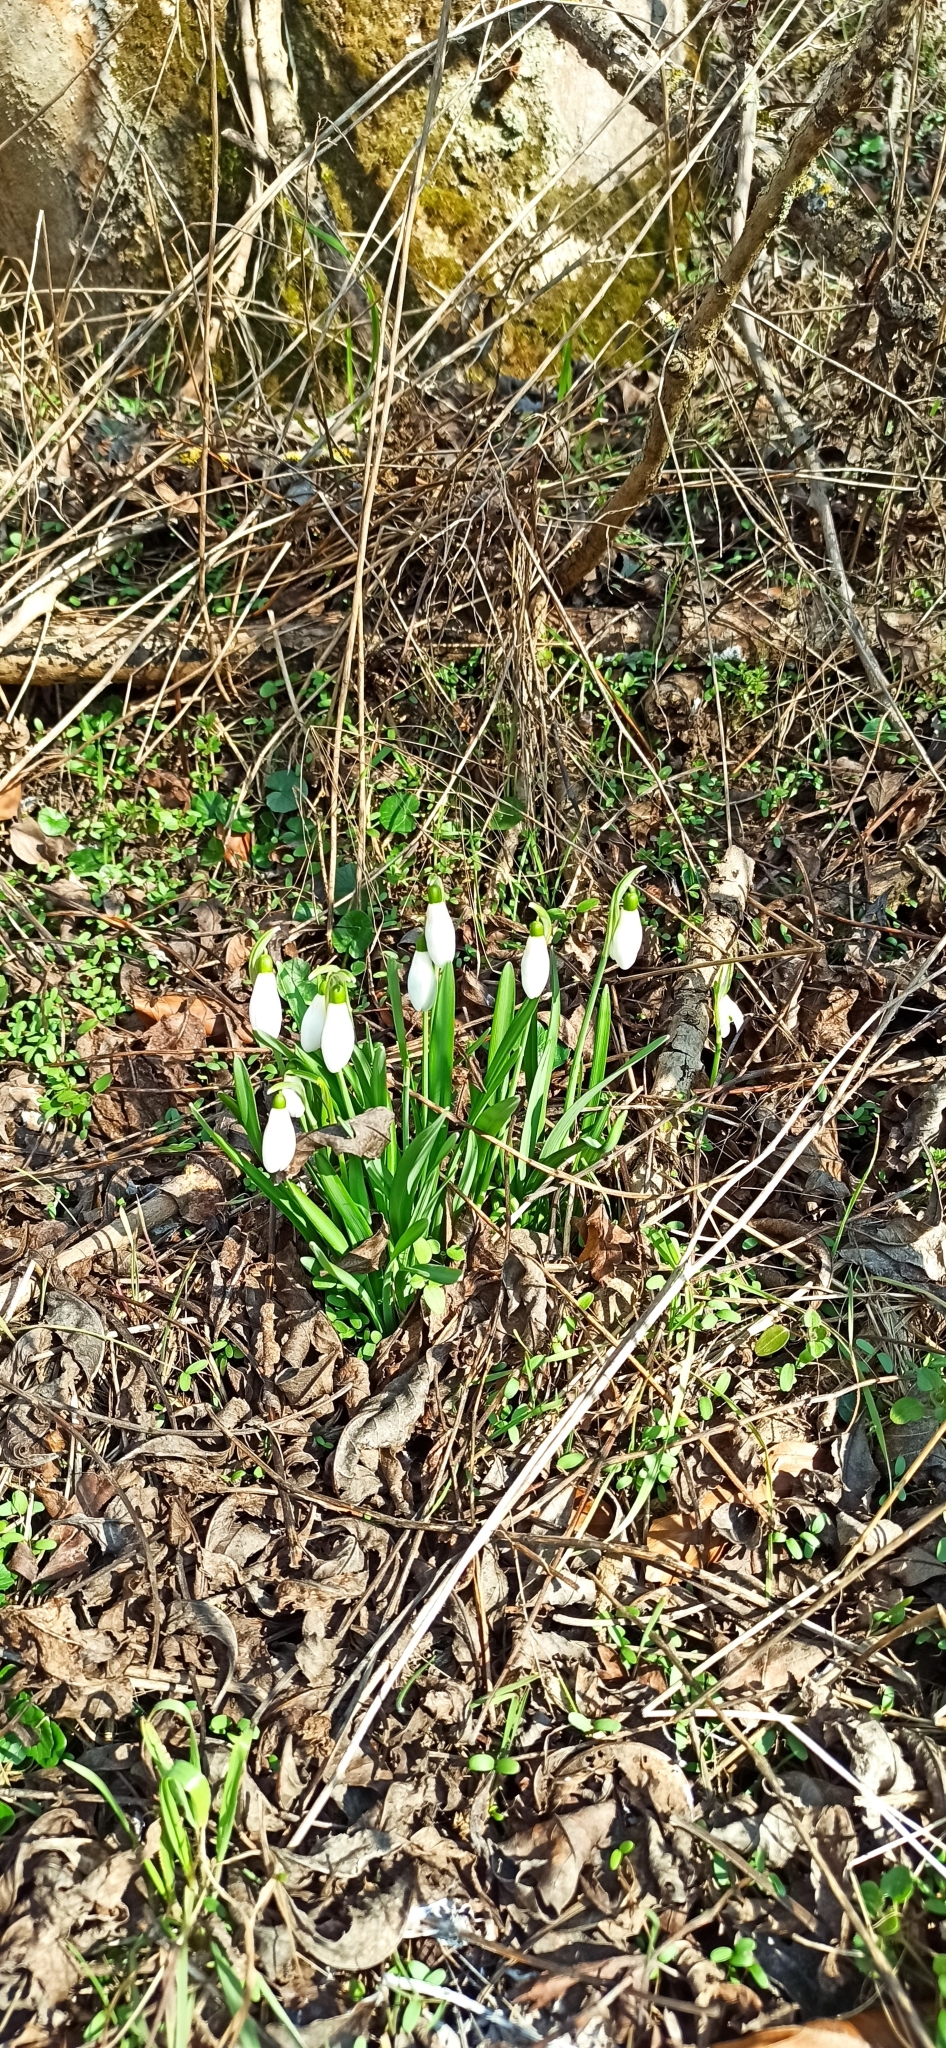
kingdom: Plantae
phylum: Tracheophyta
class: Liliopsida
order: Asparagales
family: Amaryllidaceae
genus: Galanthus
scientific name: Galanthus nivalis
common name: Snowdrop
